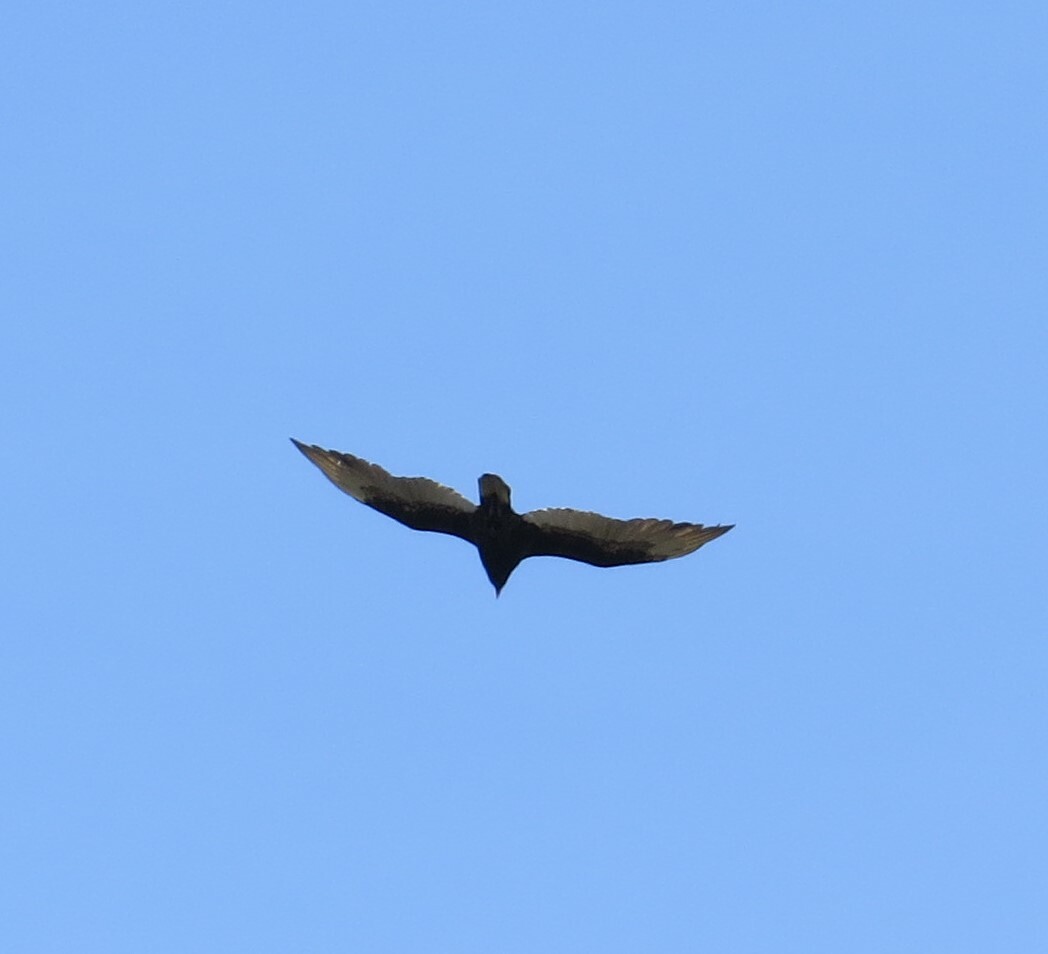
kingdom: Animalia
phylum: Chordata
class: Aves
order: Accipitriformes
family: Cathartidae
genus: Cathartes
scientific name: Cathartes aura
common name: Turkey vulture
